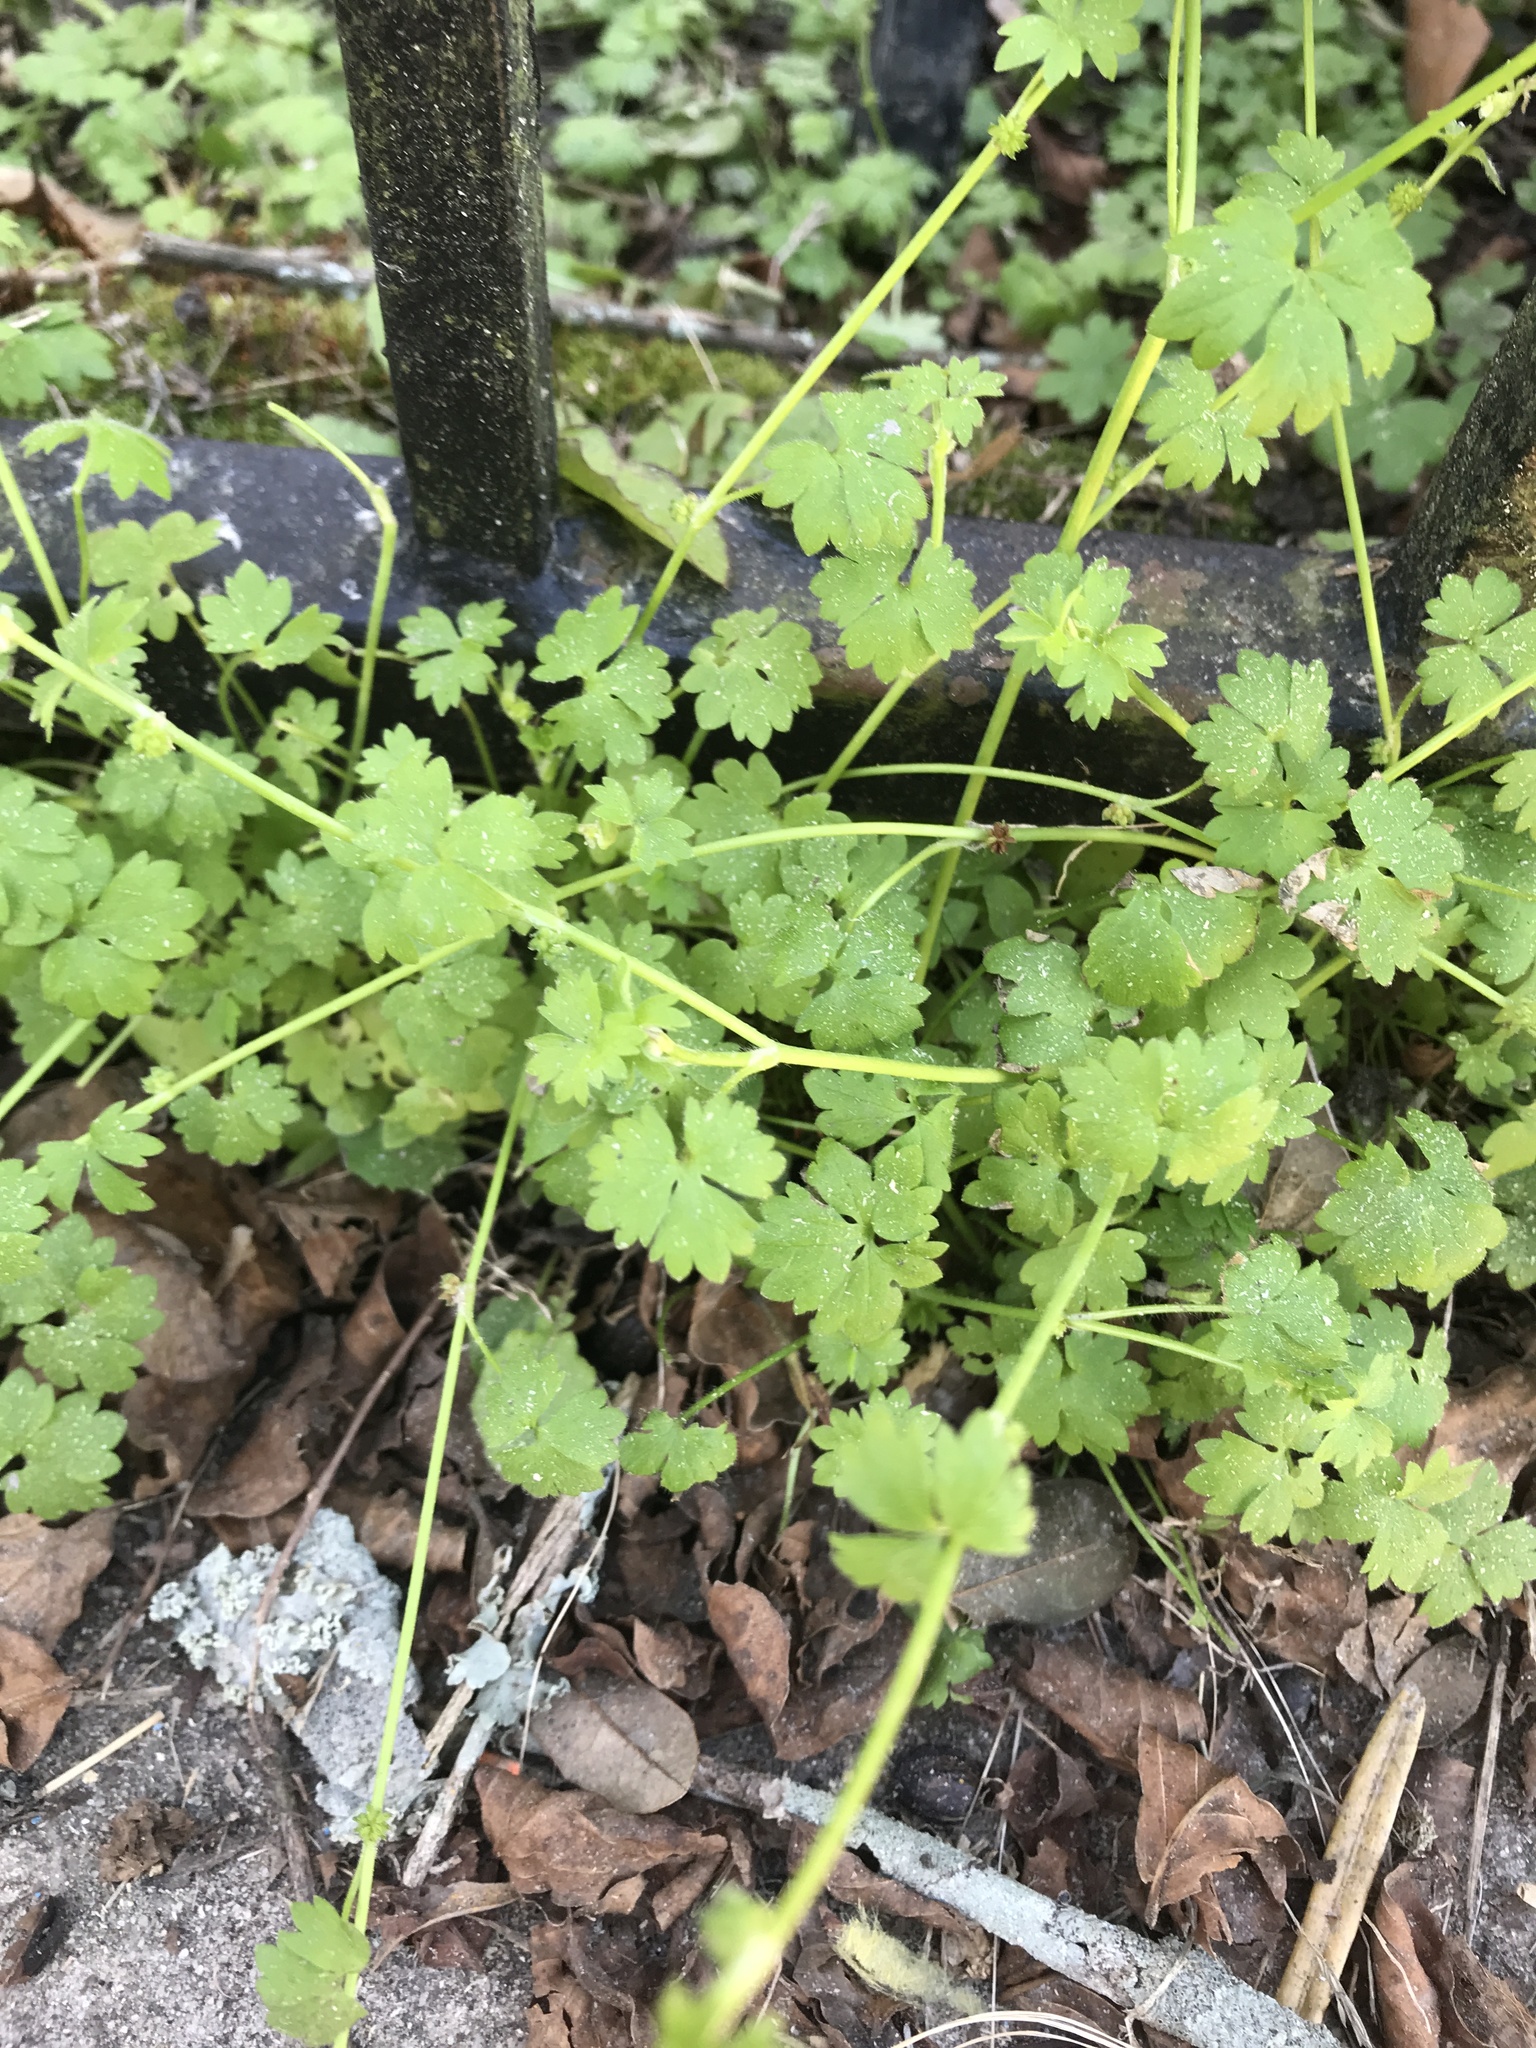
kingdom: Plantae
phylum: Tracheophyta
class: Magnoliopsida
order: Ranunculales
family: Ranunculaceae
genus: Ranunculus
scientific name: Ranunculus platensis
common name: Prairie buttercup
